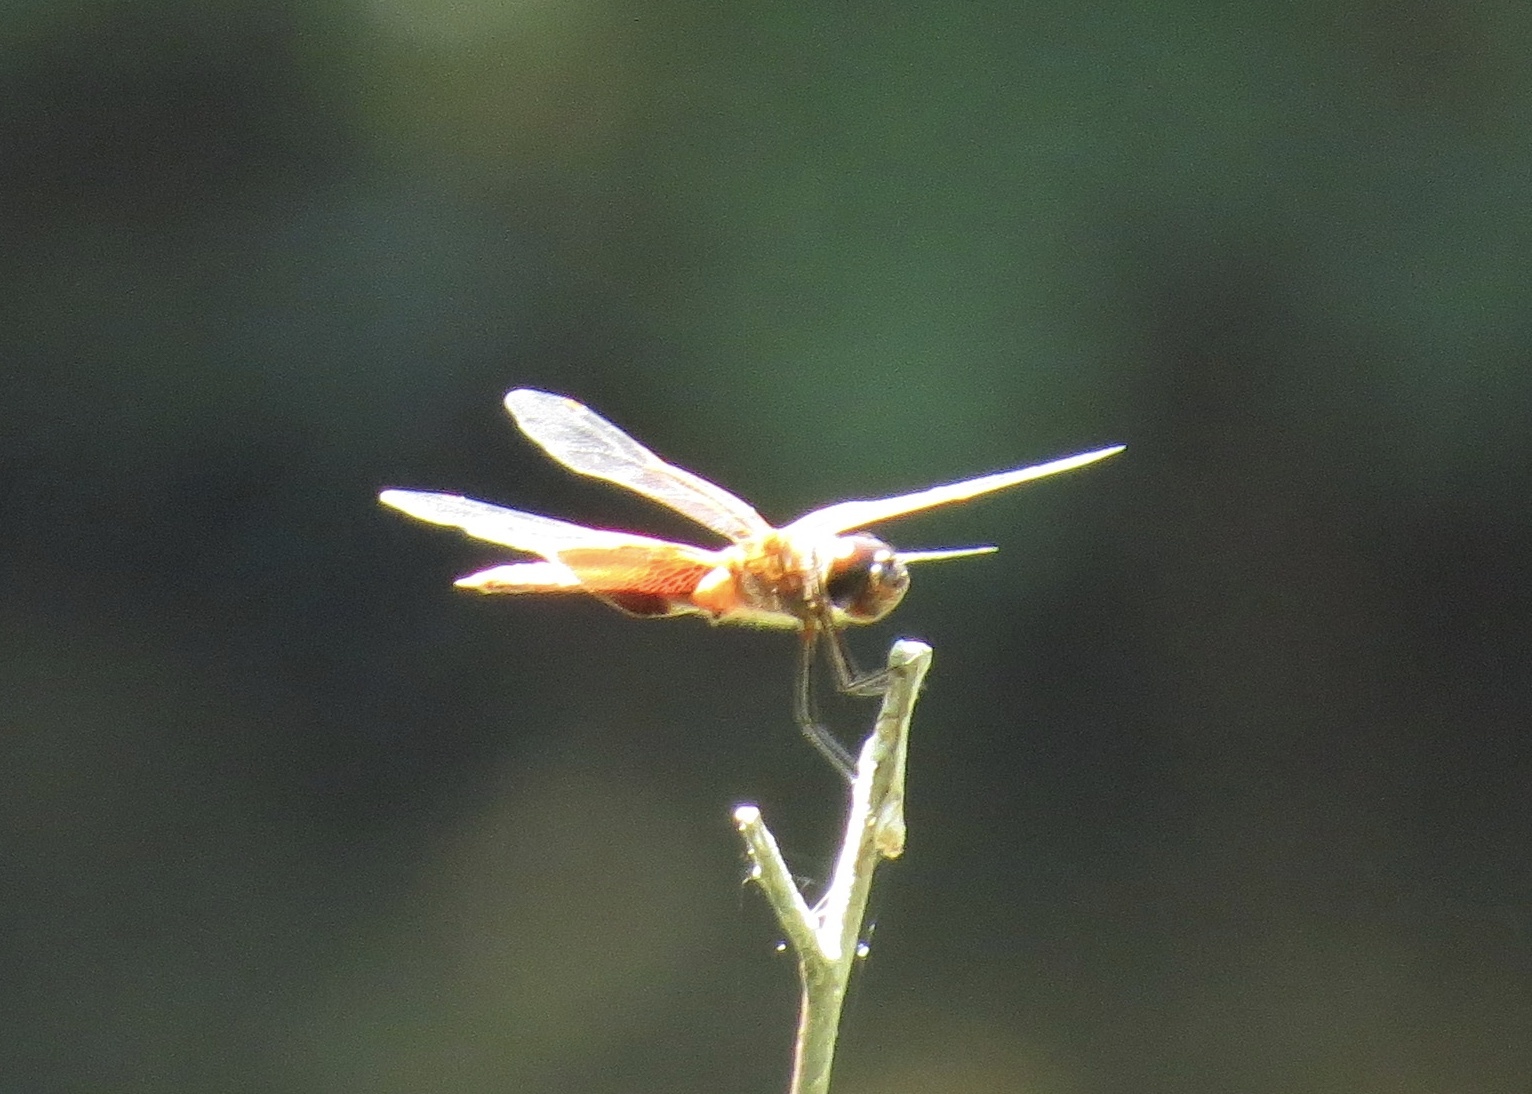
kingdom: Animalia
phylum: Arthropoda
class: Insecta
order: Odonata
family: Libellulidae
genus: Tramea
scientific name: Tramea carolina
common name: Carolina saddlebags
